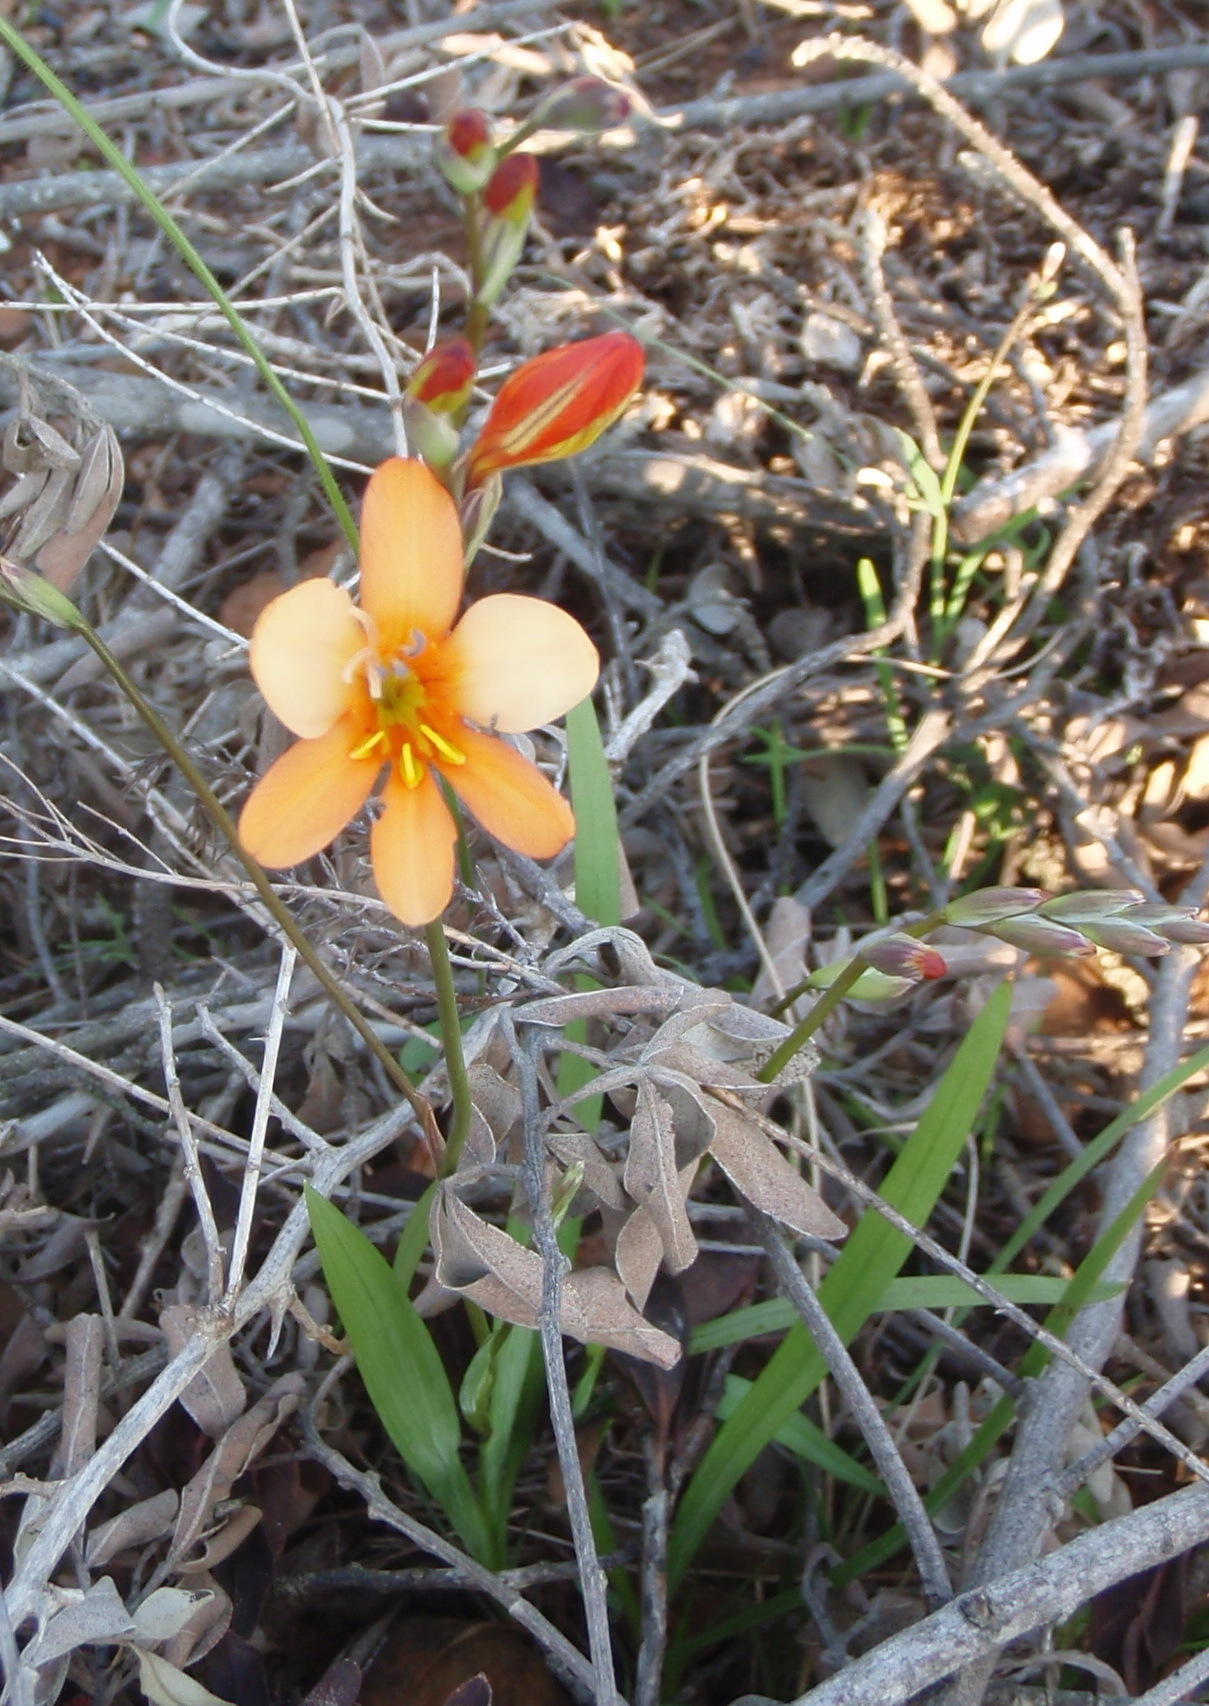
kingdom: Plantae
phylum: Tracheophyta
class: Liliopsida
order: Asparagales
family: Iridaceae
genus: Tritonia
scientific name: Tritonia securigera
